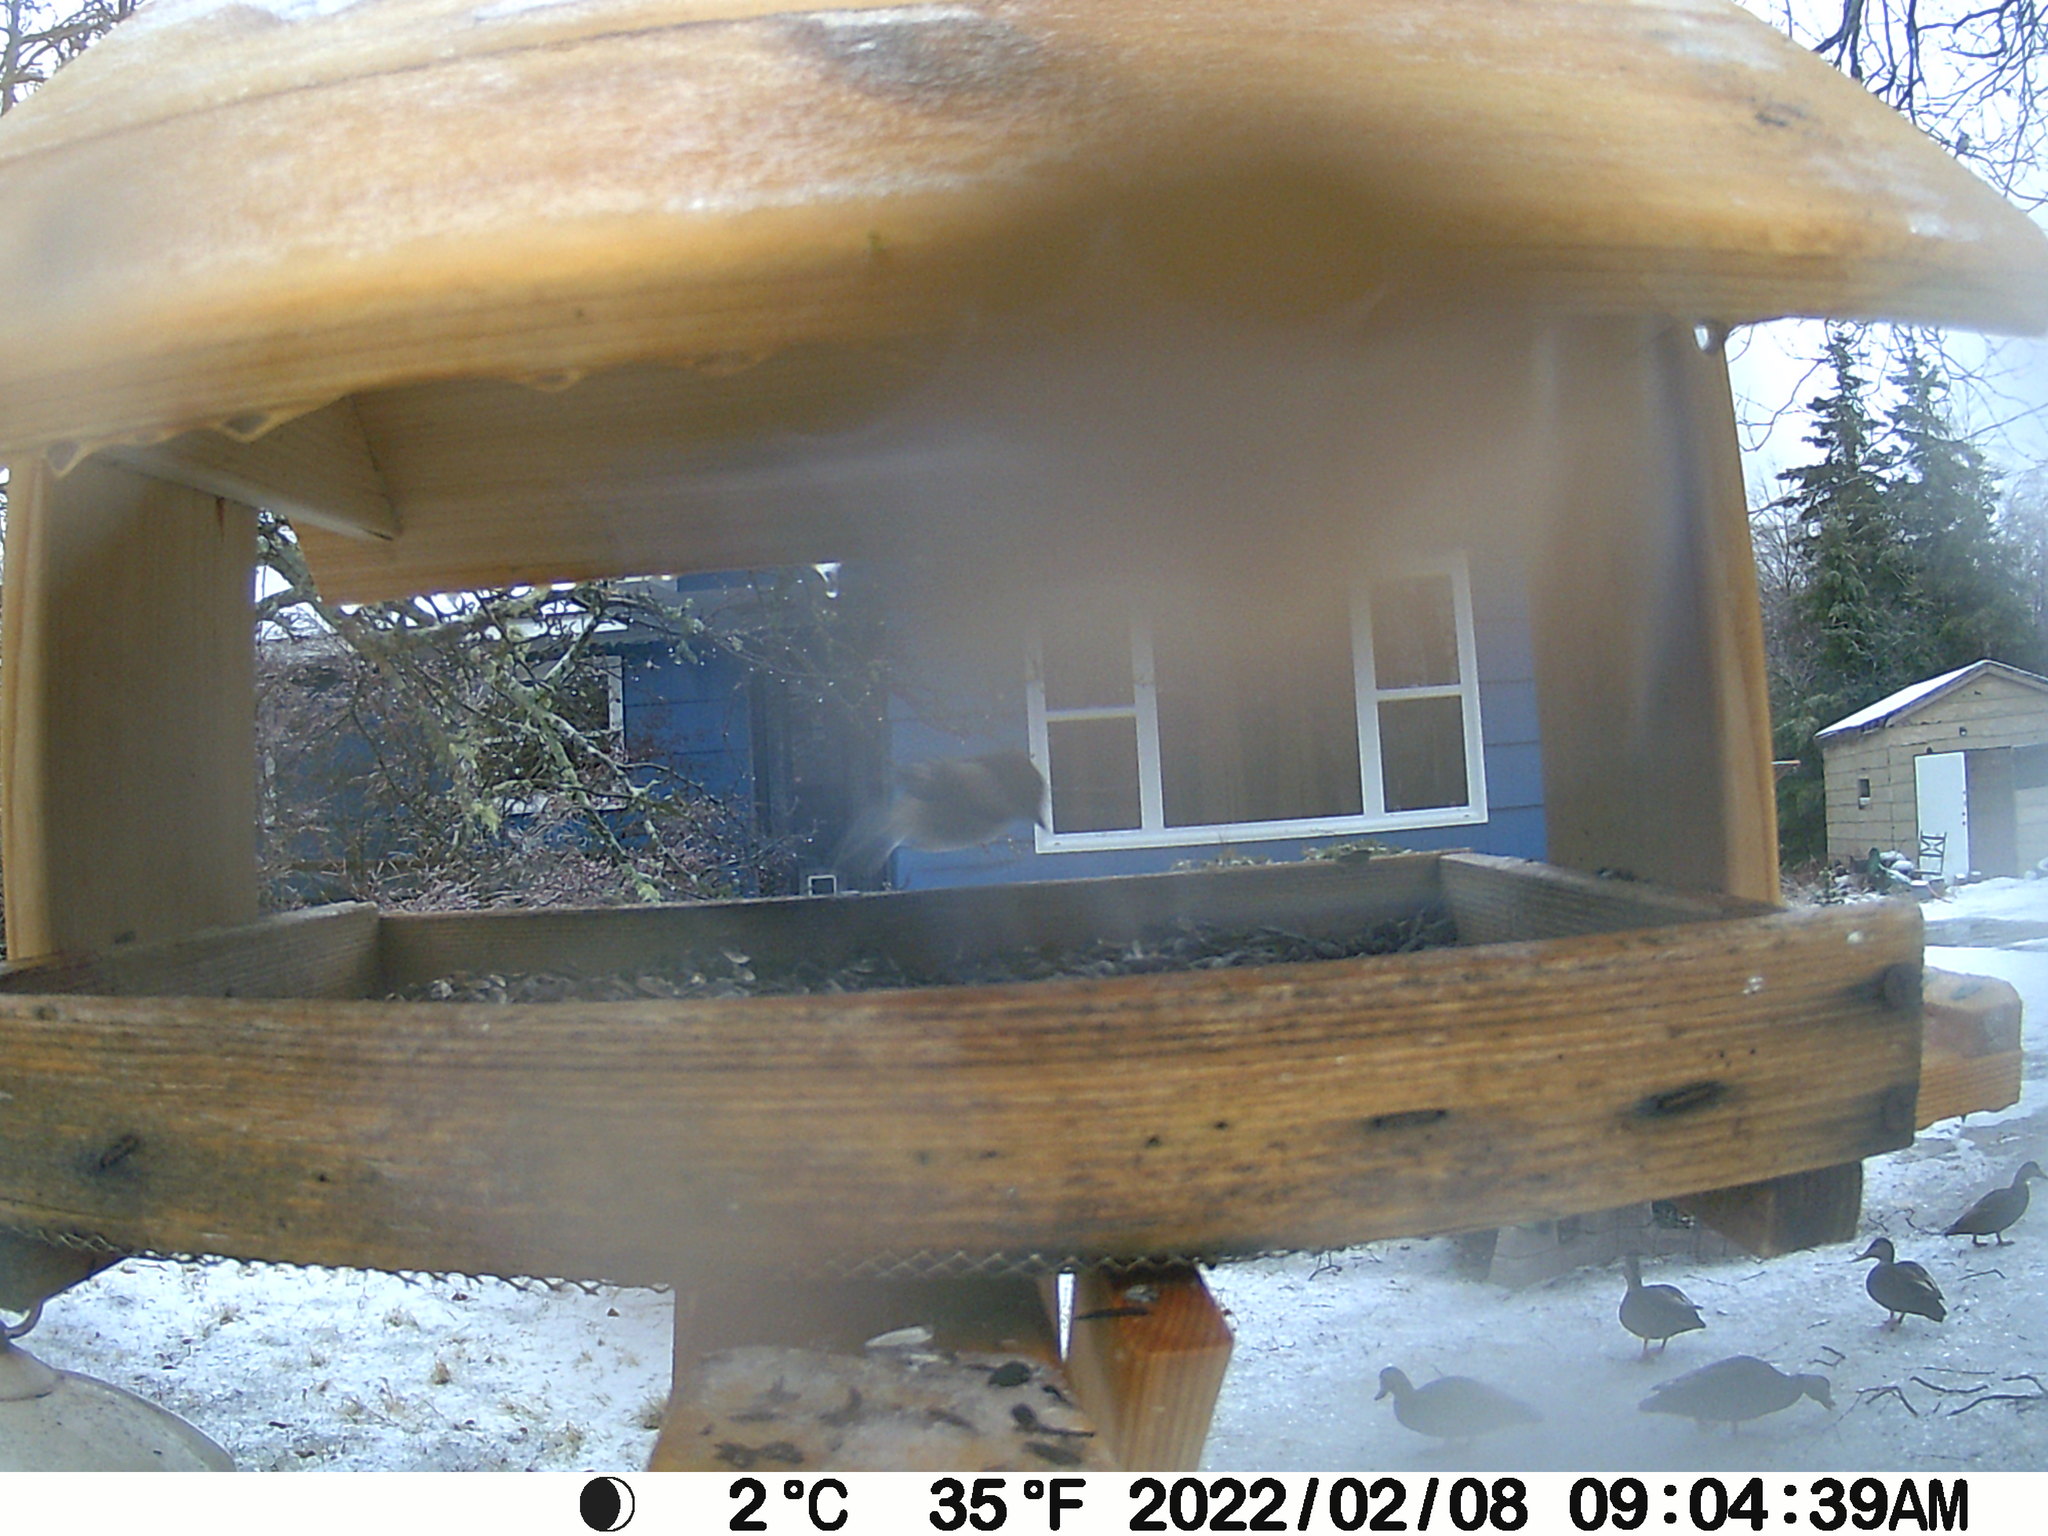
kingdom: Animalia
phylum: Chordata
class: Aves
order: Anseriformes
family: Anatidae
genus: Anas
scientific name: Anas rubripes
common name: American black duck
